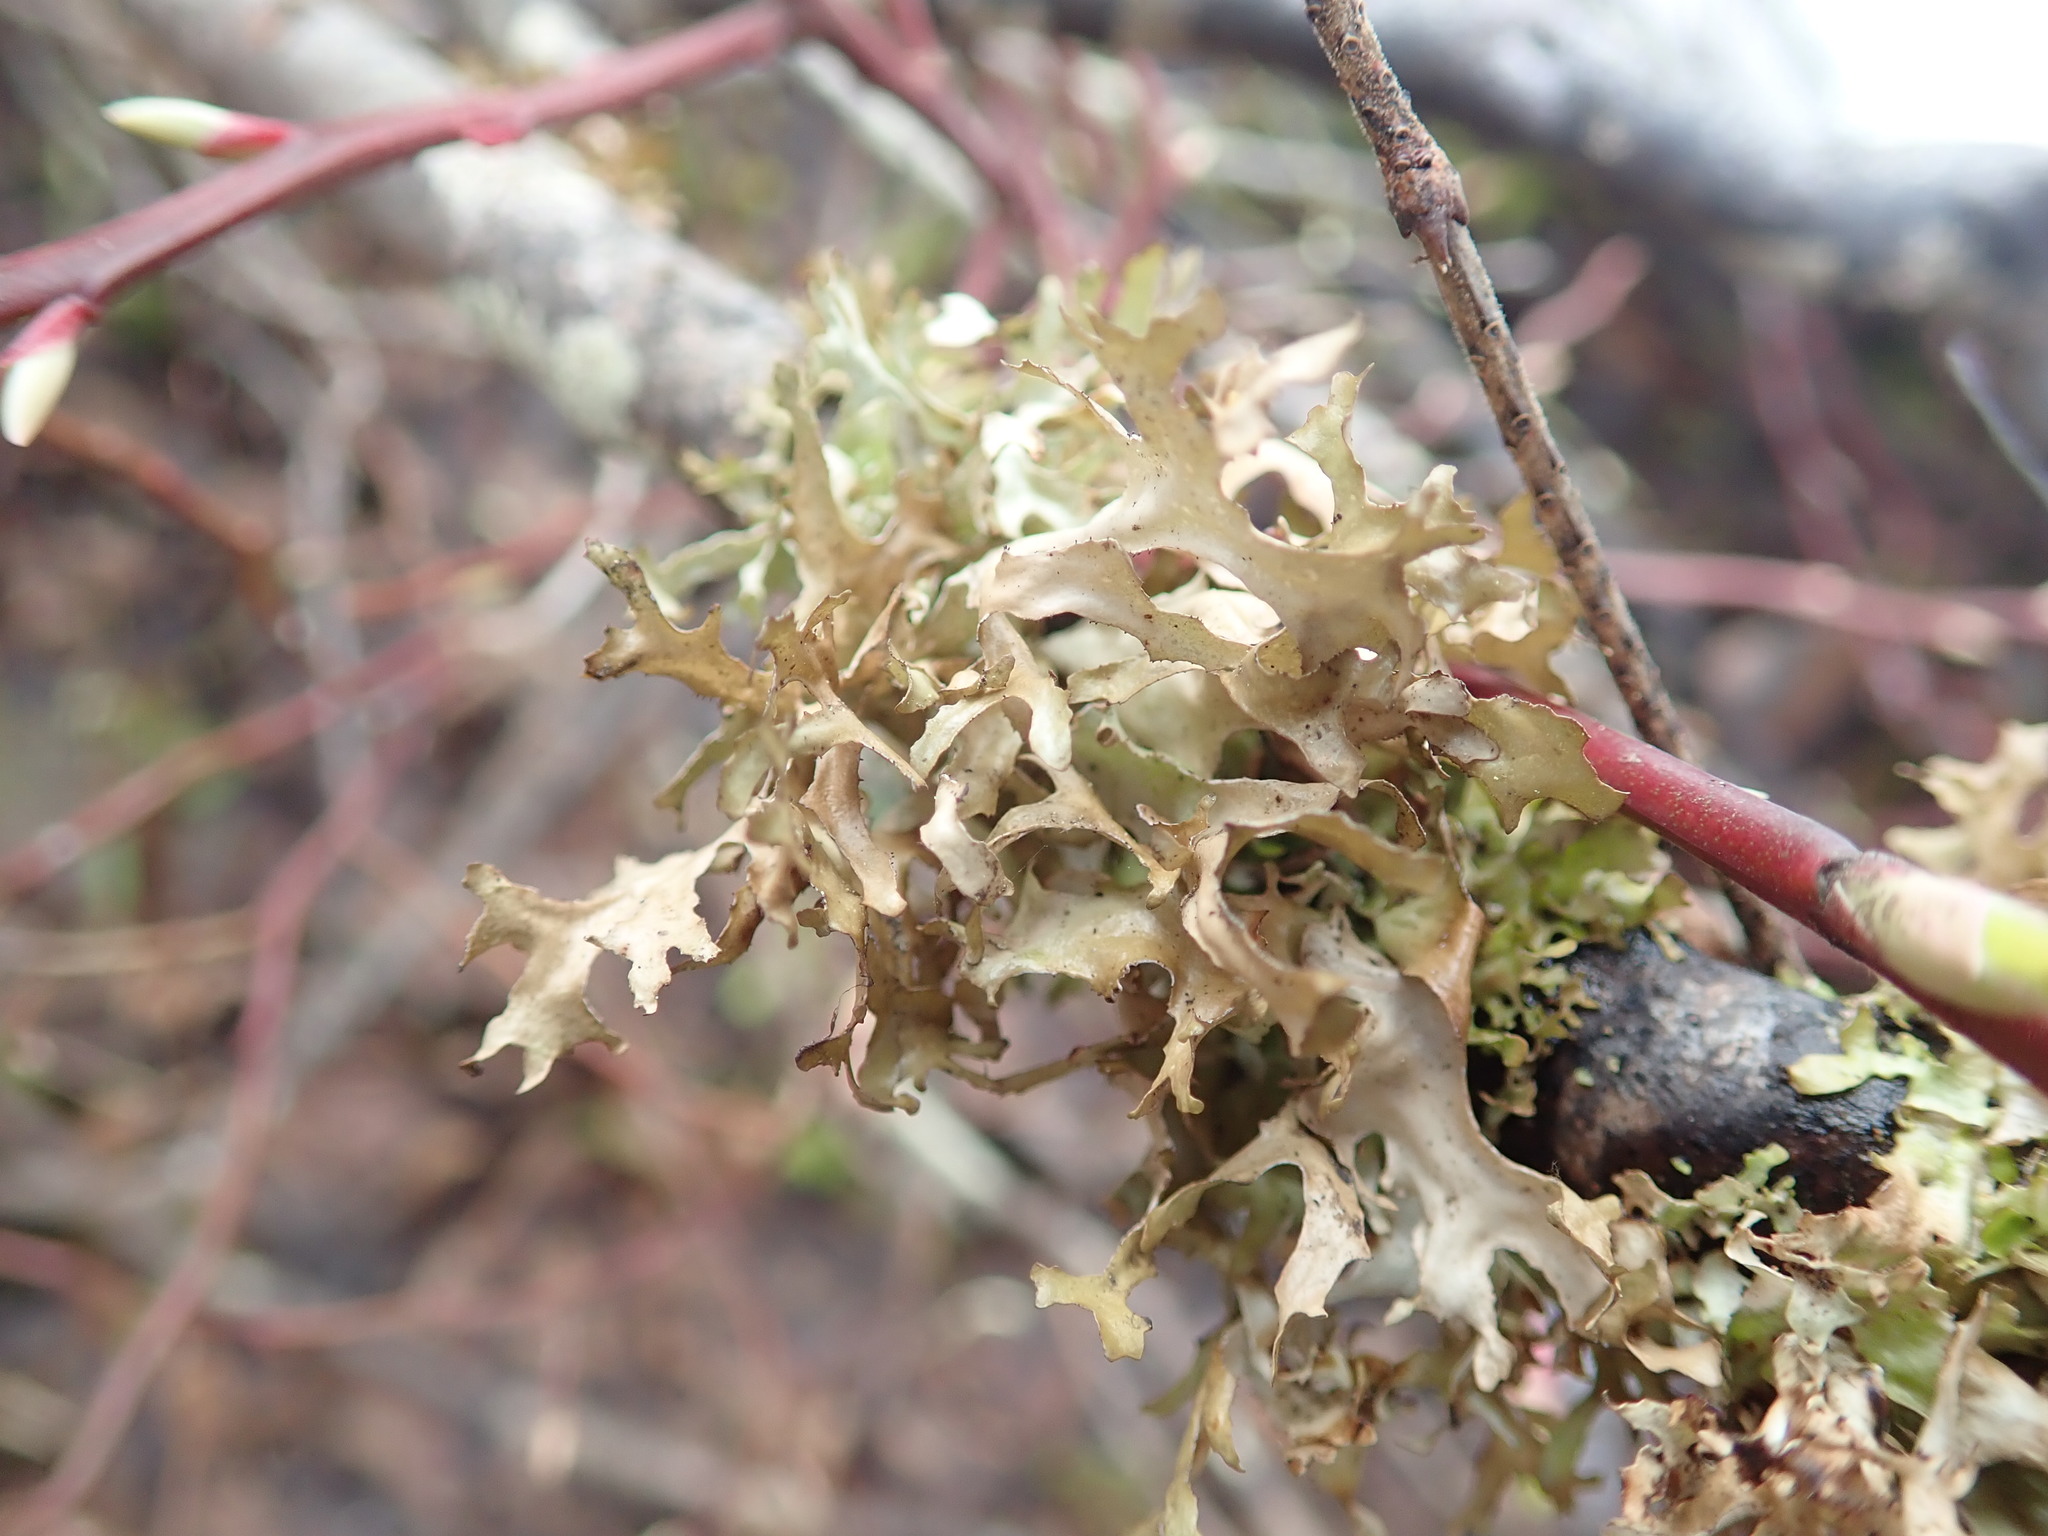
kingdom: Fungi
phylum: Ascomycota
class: Lecanoromycetes
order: Lecanorales
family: Parmeliaceae
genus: Nephromopsis
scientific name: Nephromopsis subalpina
